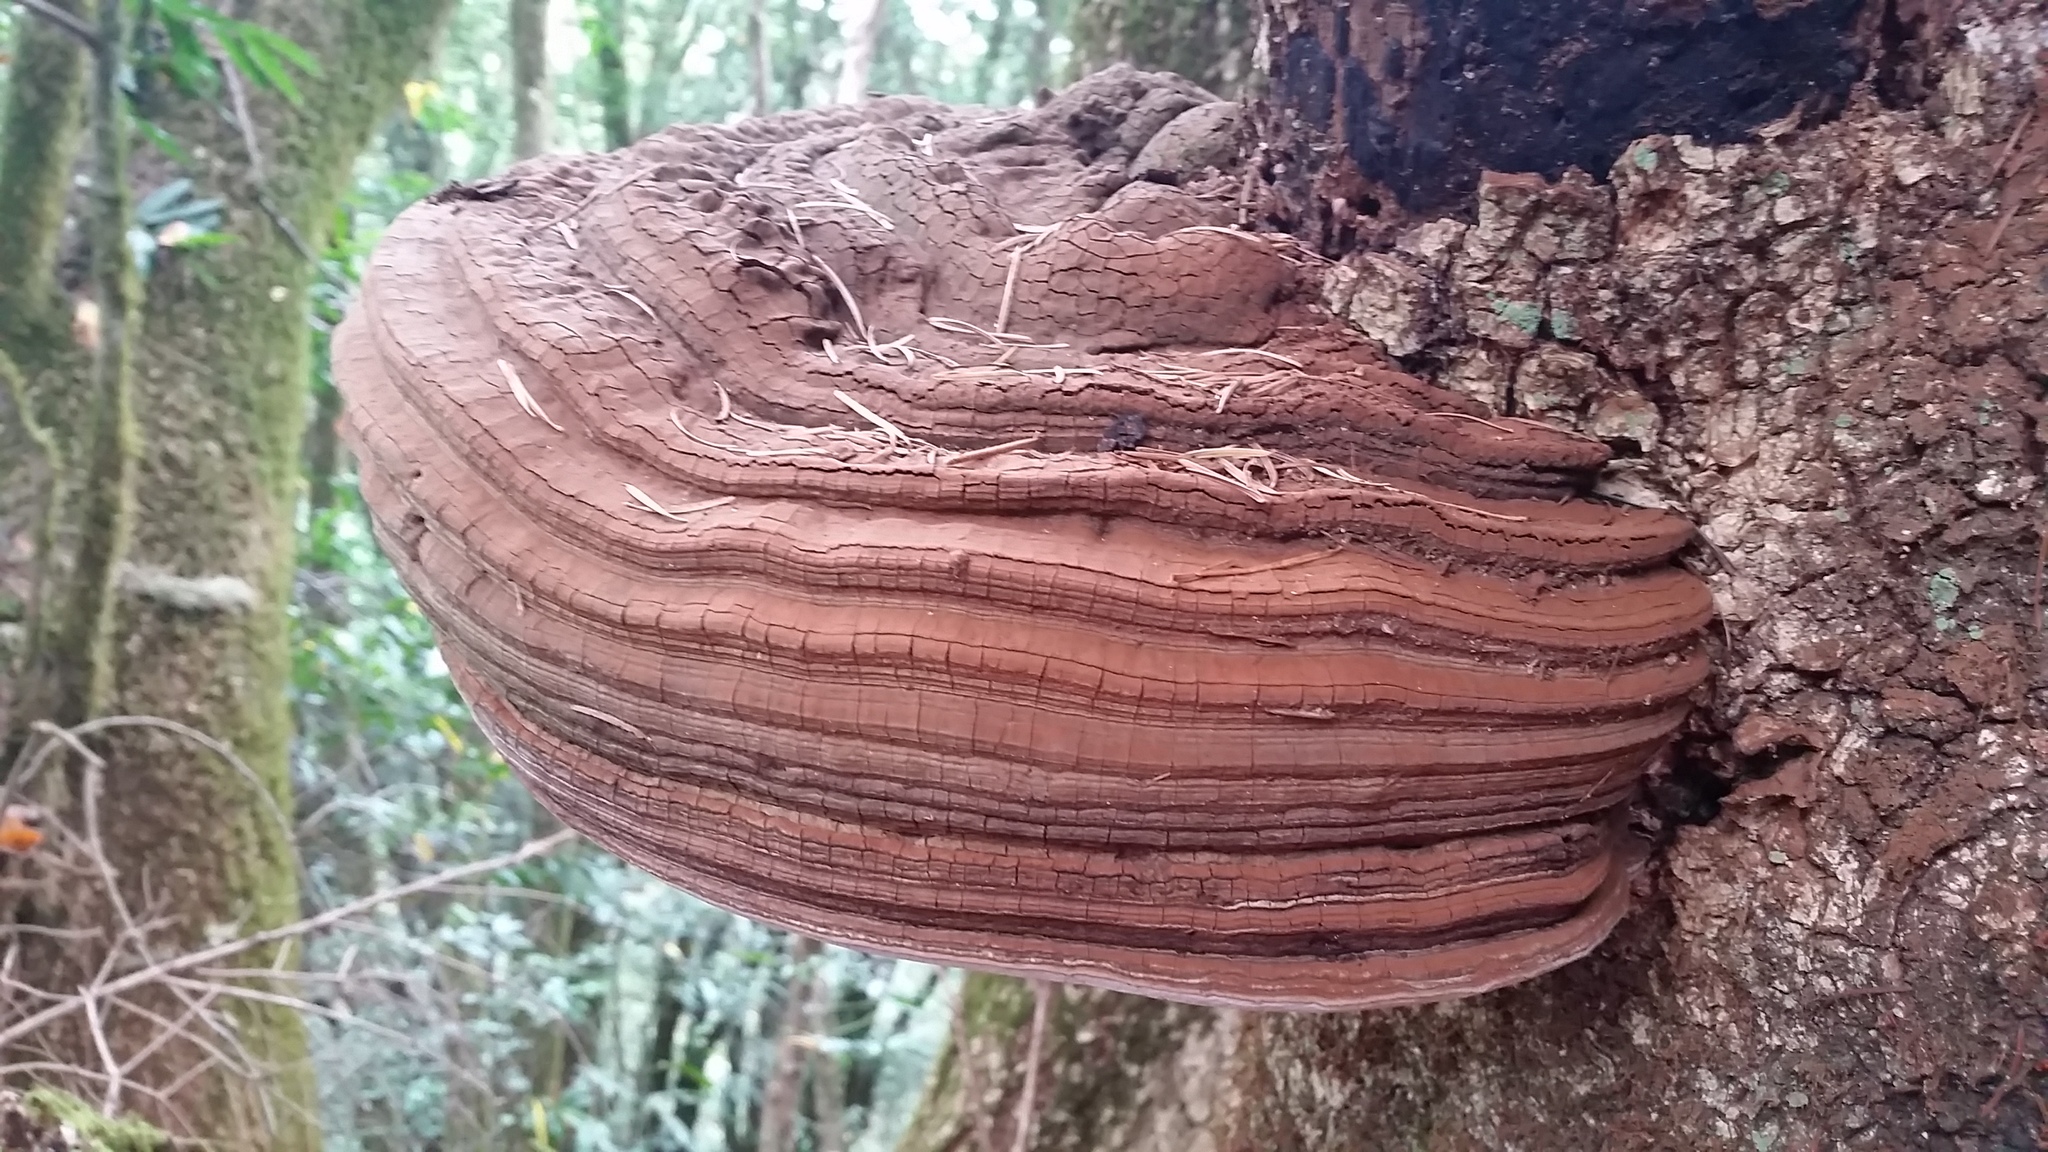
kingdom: Fungi
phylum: Basidiomycota
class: Agaricomycetes
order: Polyporales
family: Polyporaceae
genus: Ganoderma
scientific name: Ganoderma brownii
